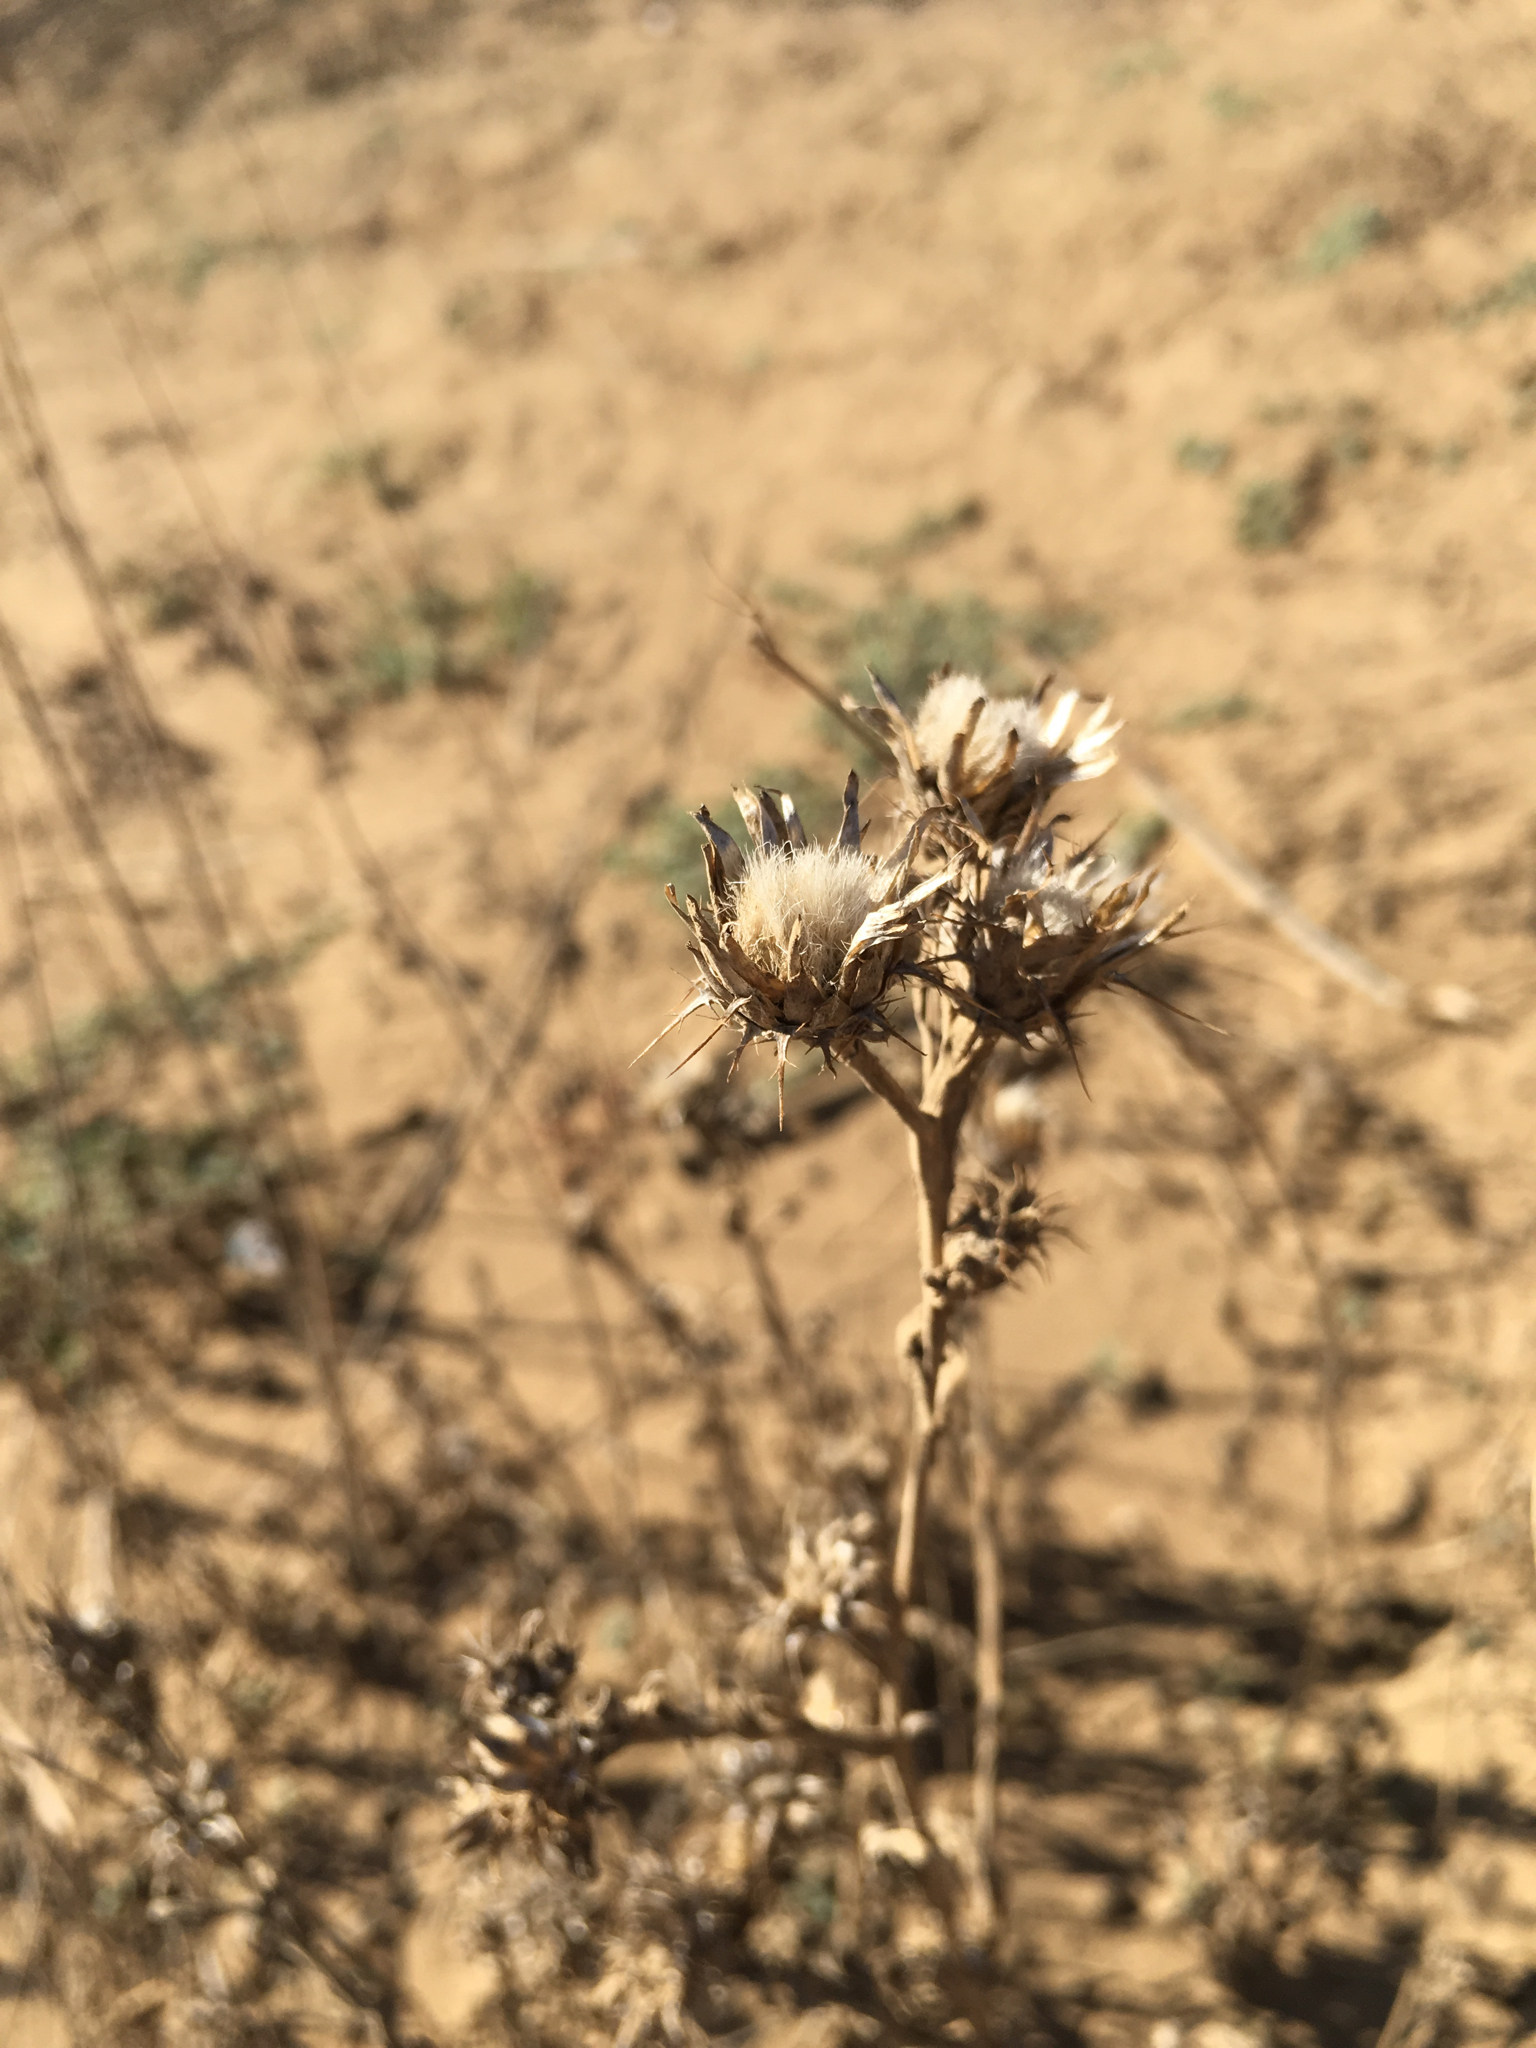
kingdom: Plantae
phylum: Tracheophyta
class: Magnoliopsida
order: Asterales
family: Asteraceae
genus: Centaurea
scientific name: Centaurea melitensis
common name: Maltese star-thistle
